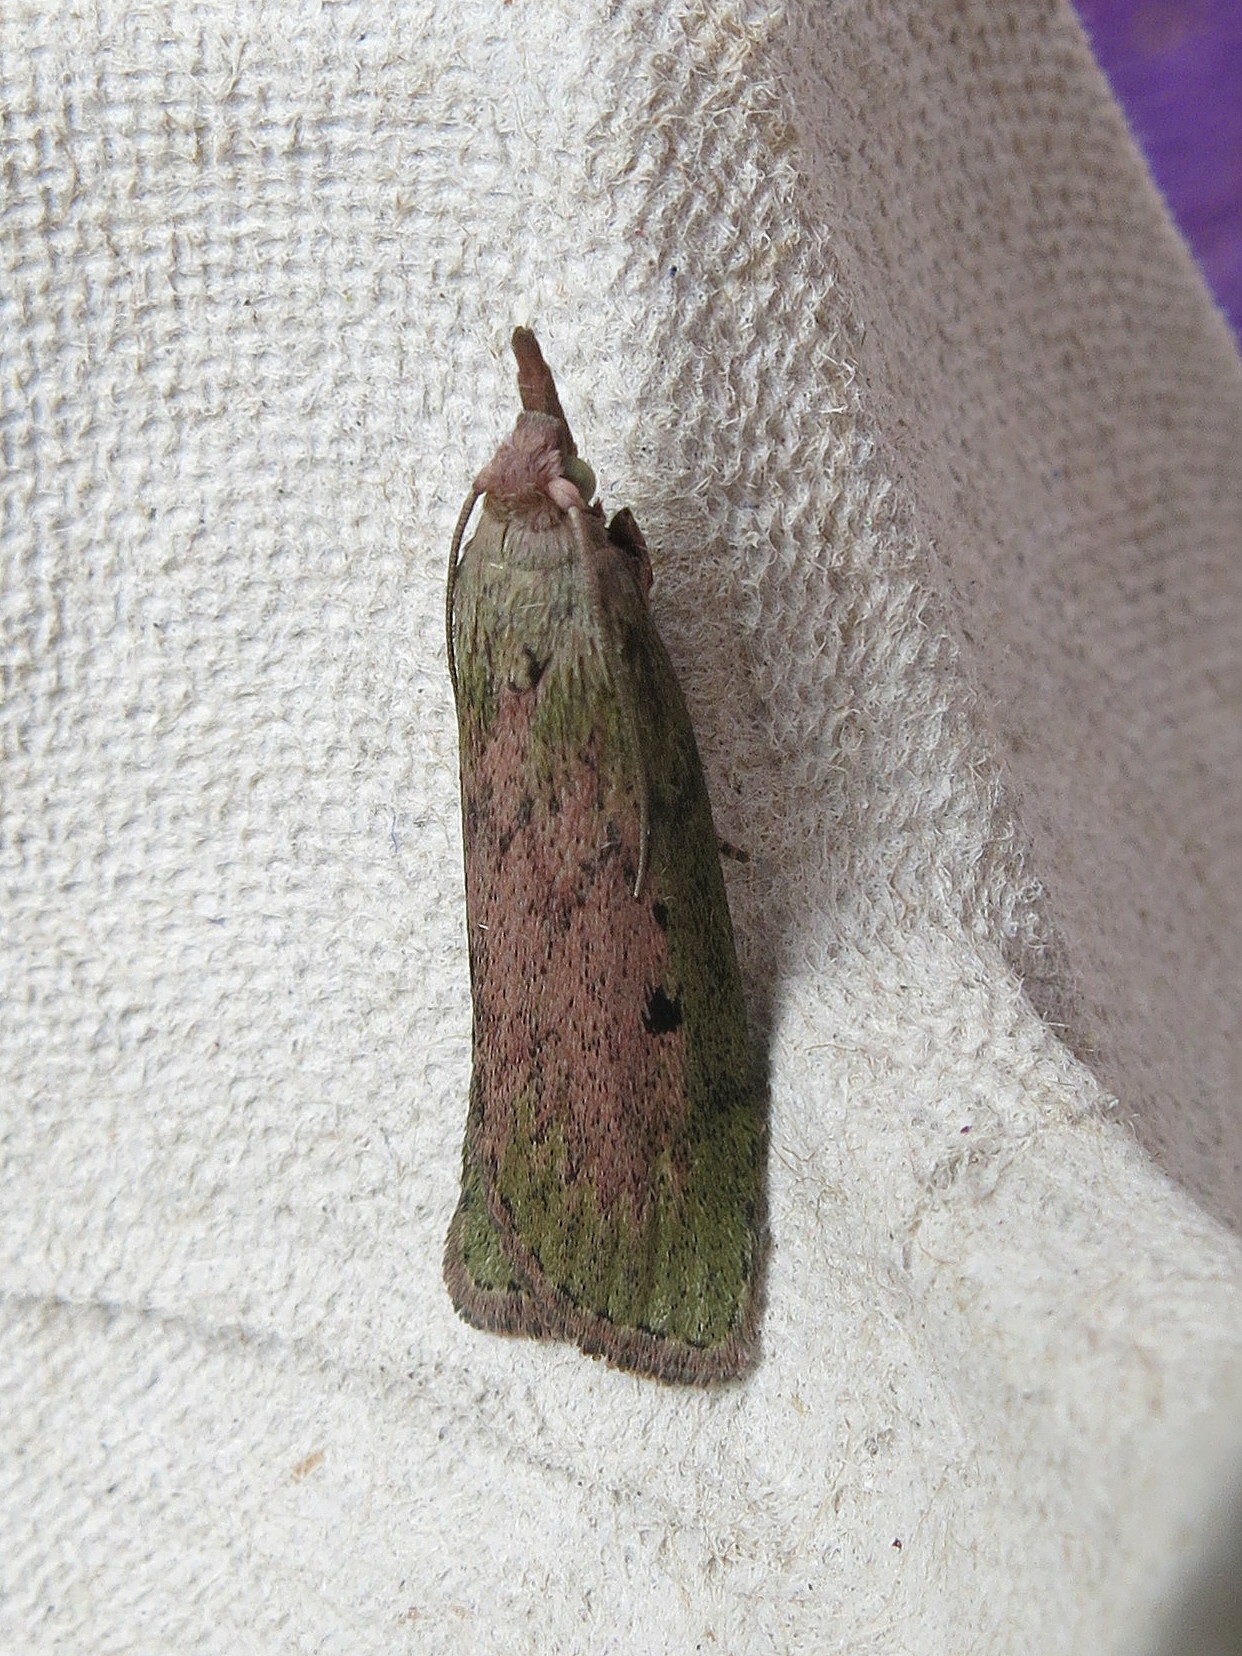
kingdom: Animalia
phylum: Arthropoda
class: Insecta
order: Lepidoptera
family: Pyralidae
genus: Aphomia
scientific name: Aphomia sociella
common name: Bee moth
